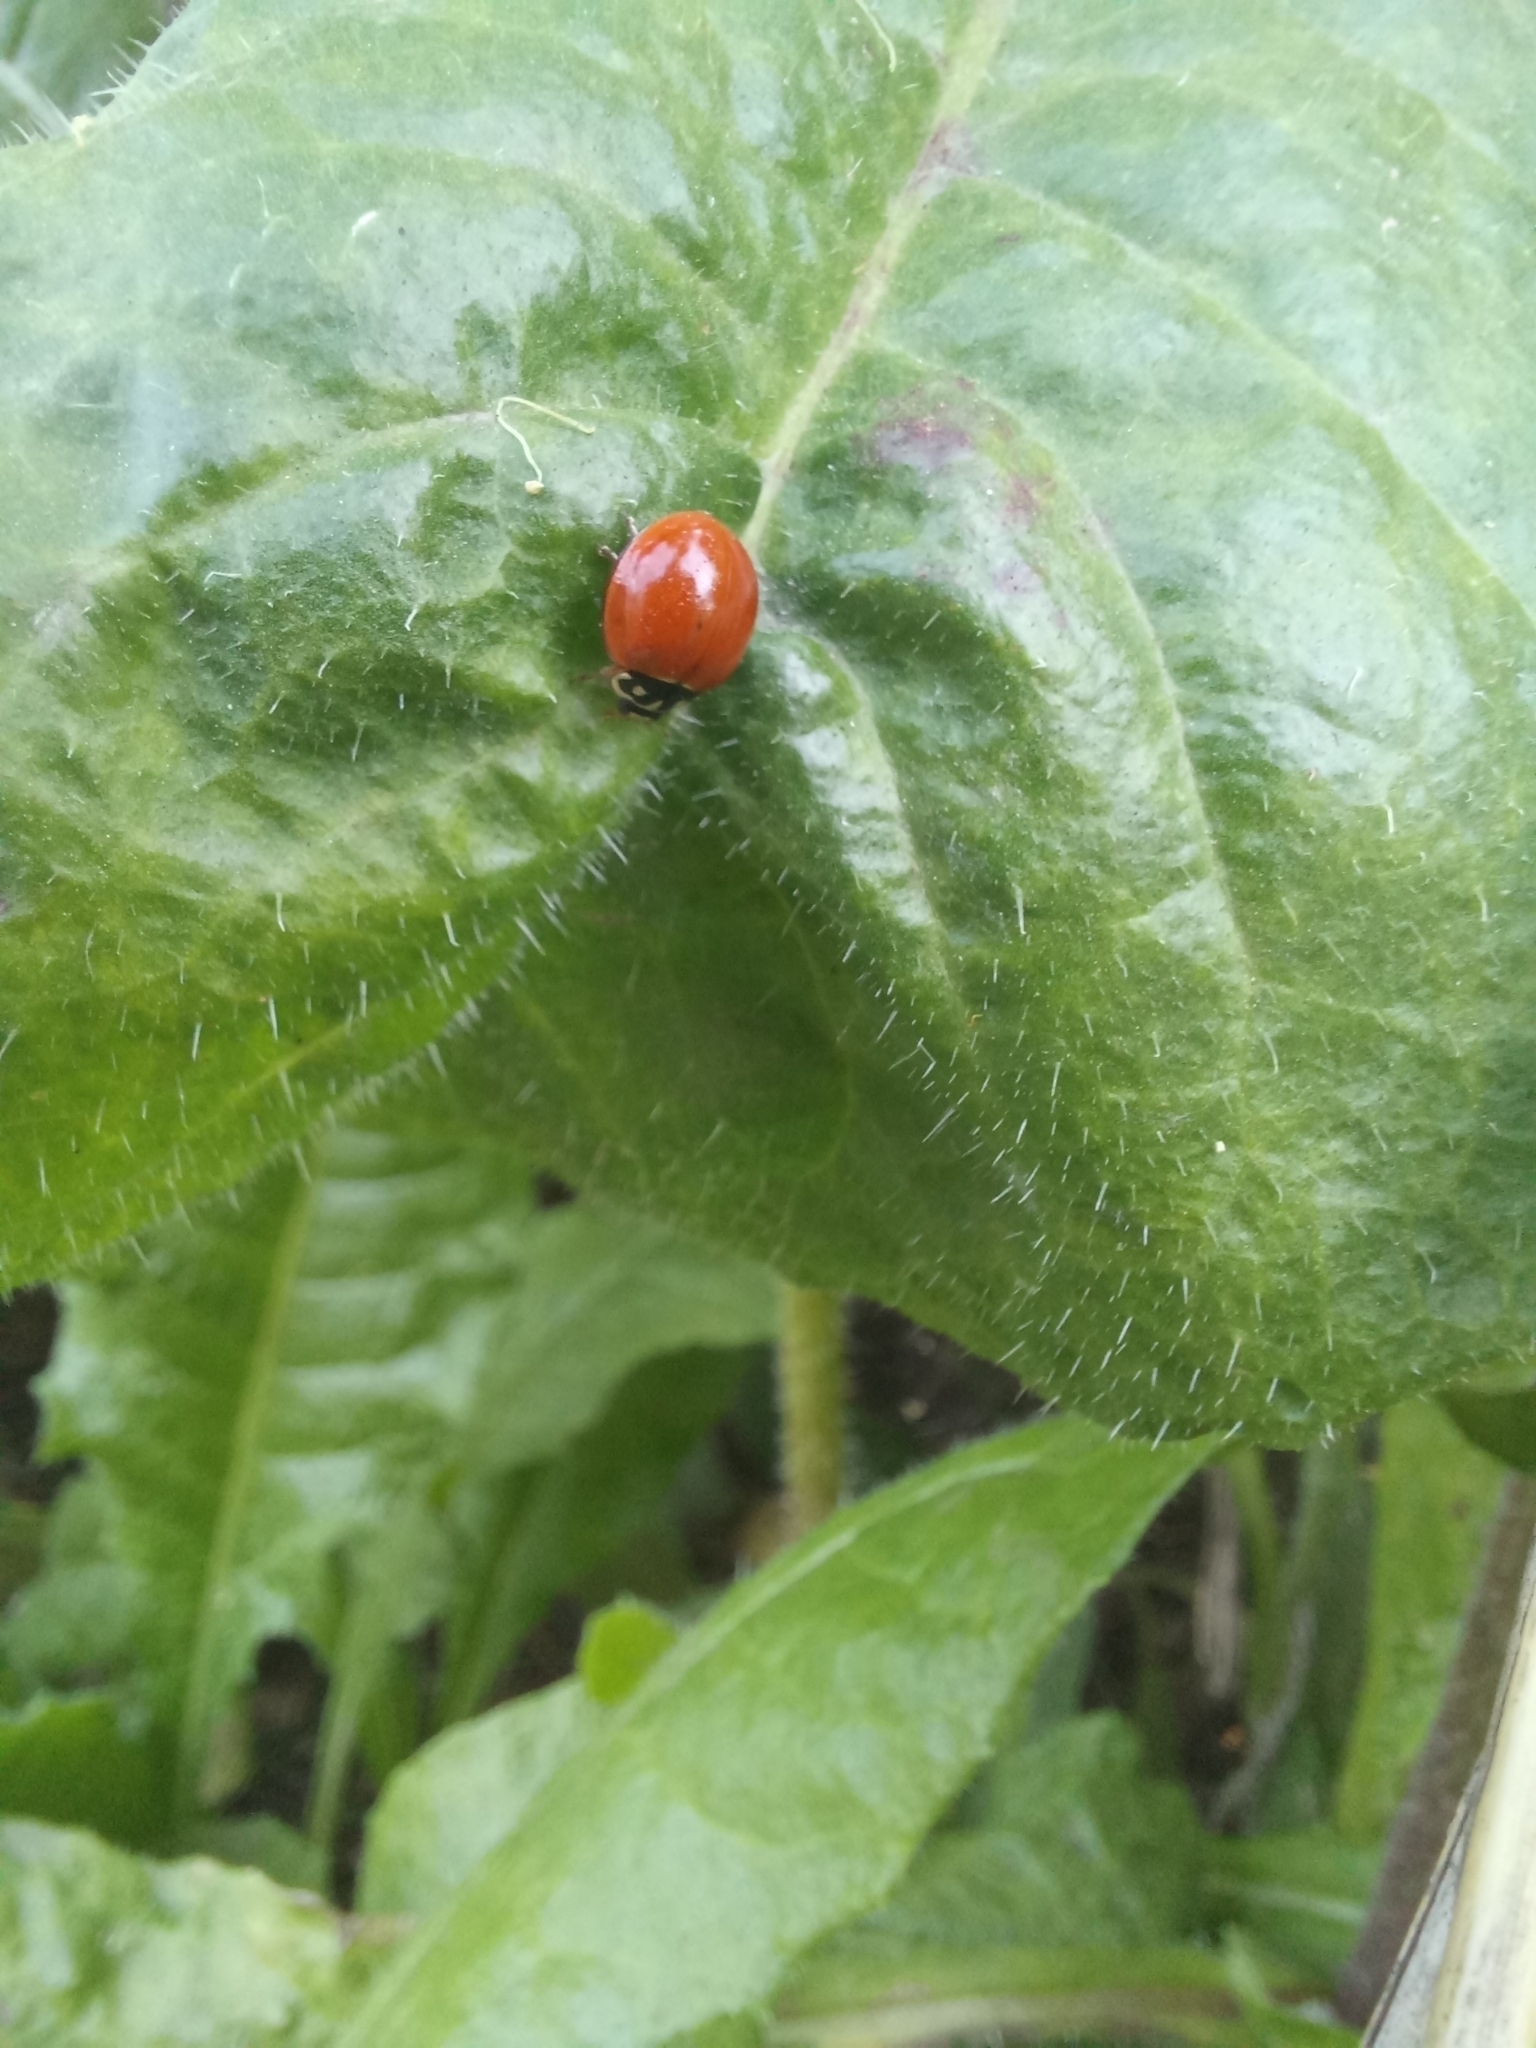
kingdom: Animalia
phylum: Arthropoda
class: Insecta
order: Coleoptera
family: Coccinellidae
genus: Cycloneda
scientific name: Cycloneda sanguinea
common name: Ladybird beetle
